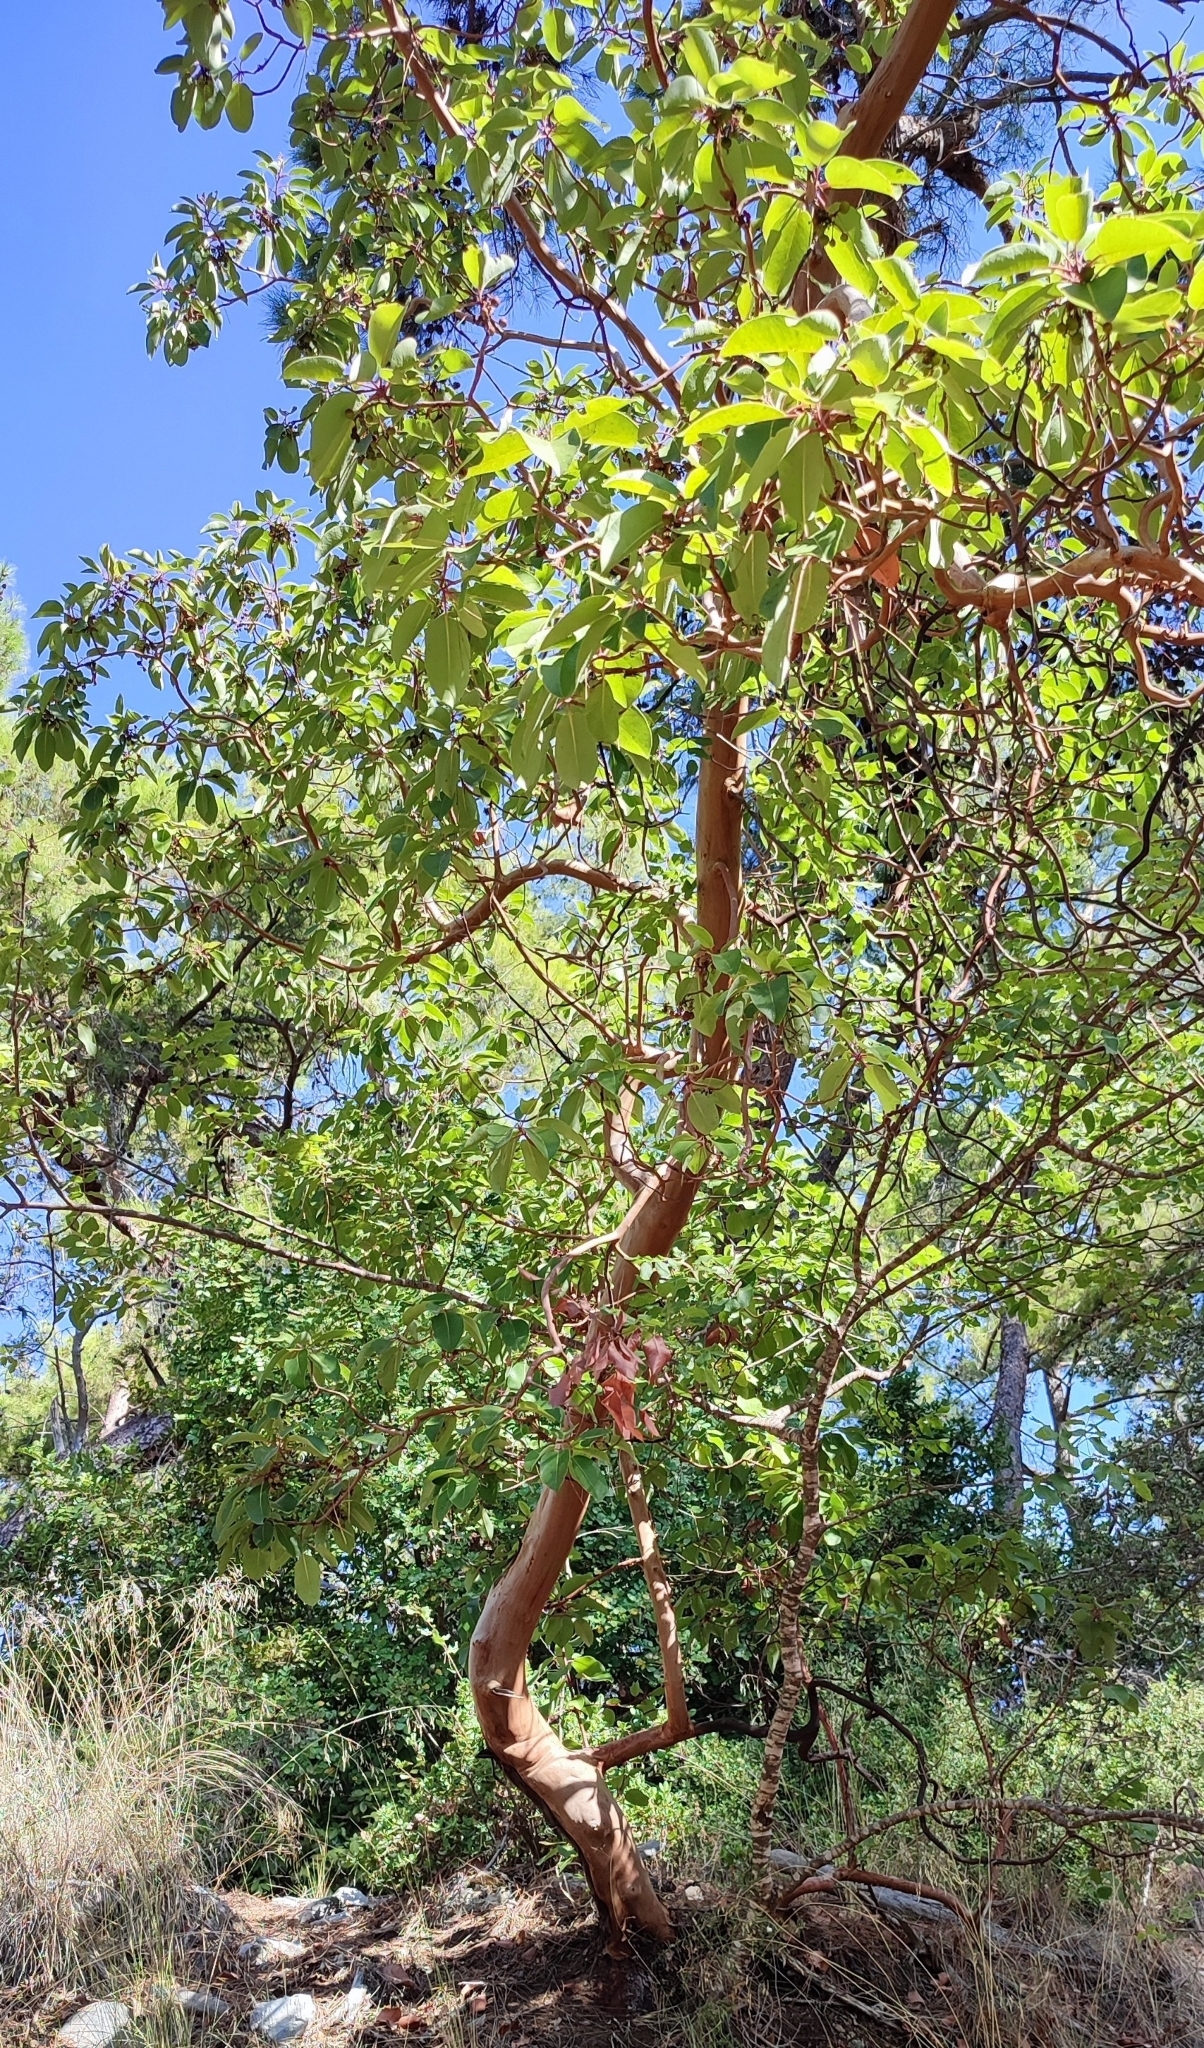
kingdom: Plantae
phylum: Tracheophyta
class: Magnoliopsida
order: Ericales
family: Ericaceae
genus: Arbutus
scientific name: Arbutus andrachne
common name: Greek strawberry tree
